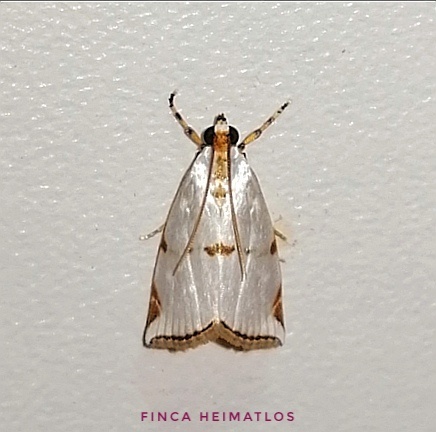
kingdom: Animalia
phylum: Arthropoda
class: Insecta
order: Lepidoptera
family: Crambidae
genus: Argyria
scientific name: Argyria insons
